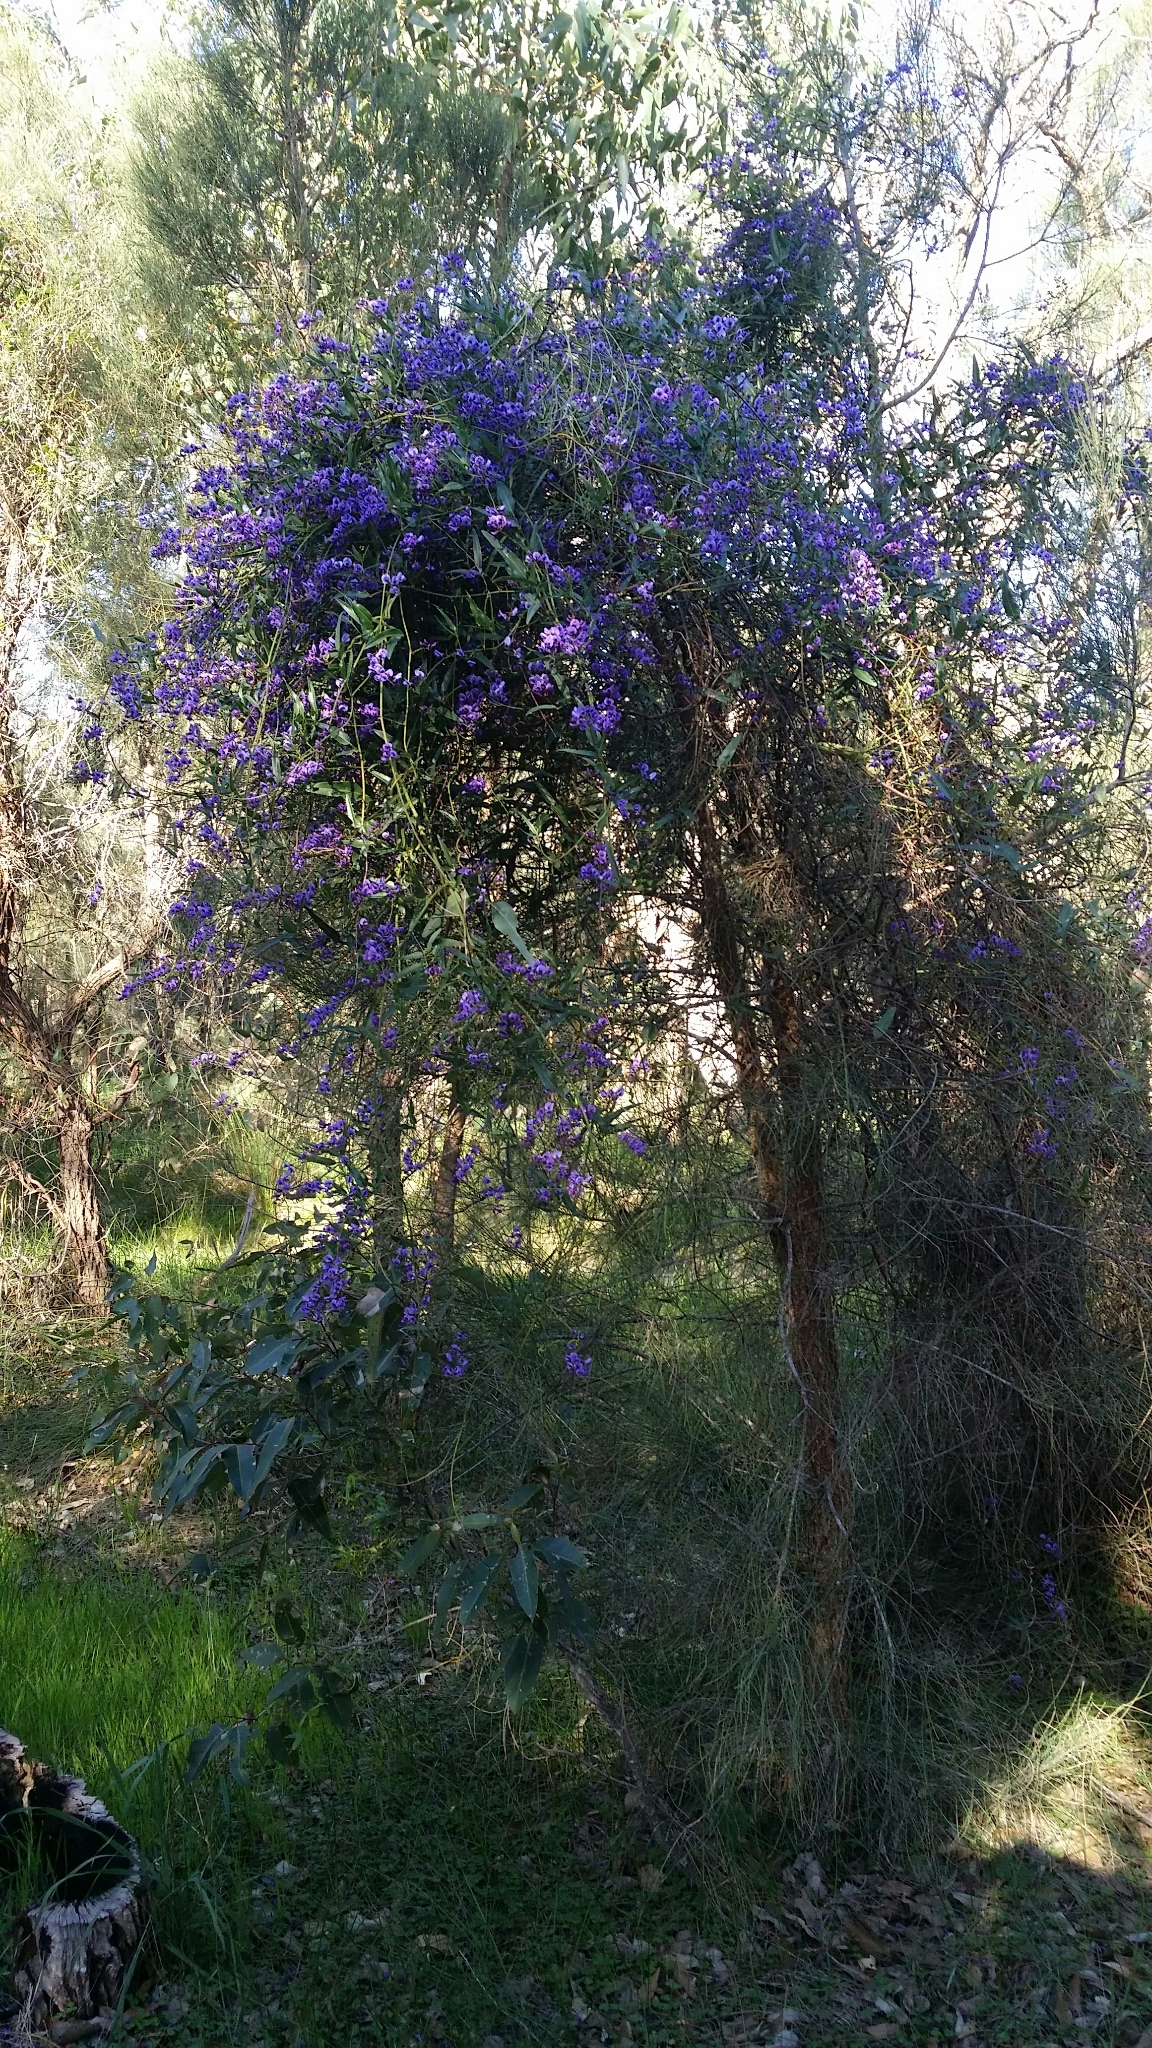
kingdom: Plantae
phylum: Tracheophyta
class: Magnoliopsida
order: Fabales
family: Fabaceae
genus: Hardenbergia
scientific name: Hardenbergia comptoniana
